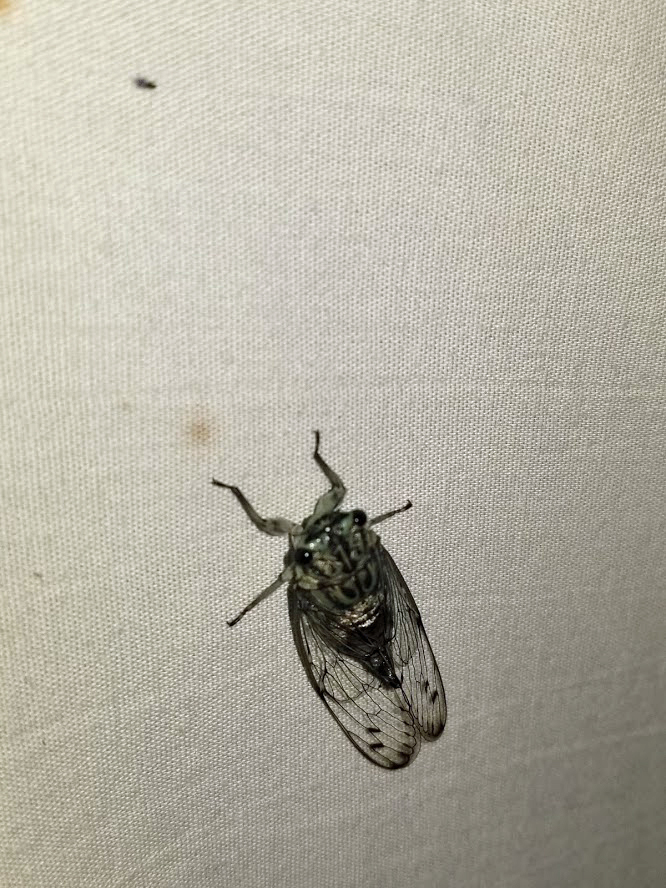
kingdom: Animalia
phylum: Arthropoda
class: Insecta
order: Hemiptera
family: Cicadidae
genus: Neocicada
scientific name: Neocicada hieroglyphica
